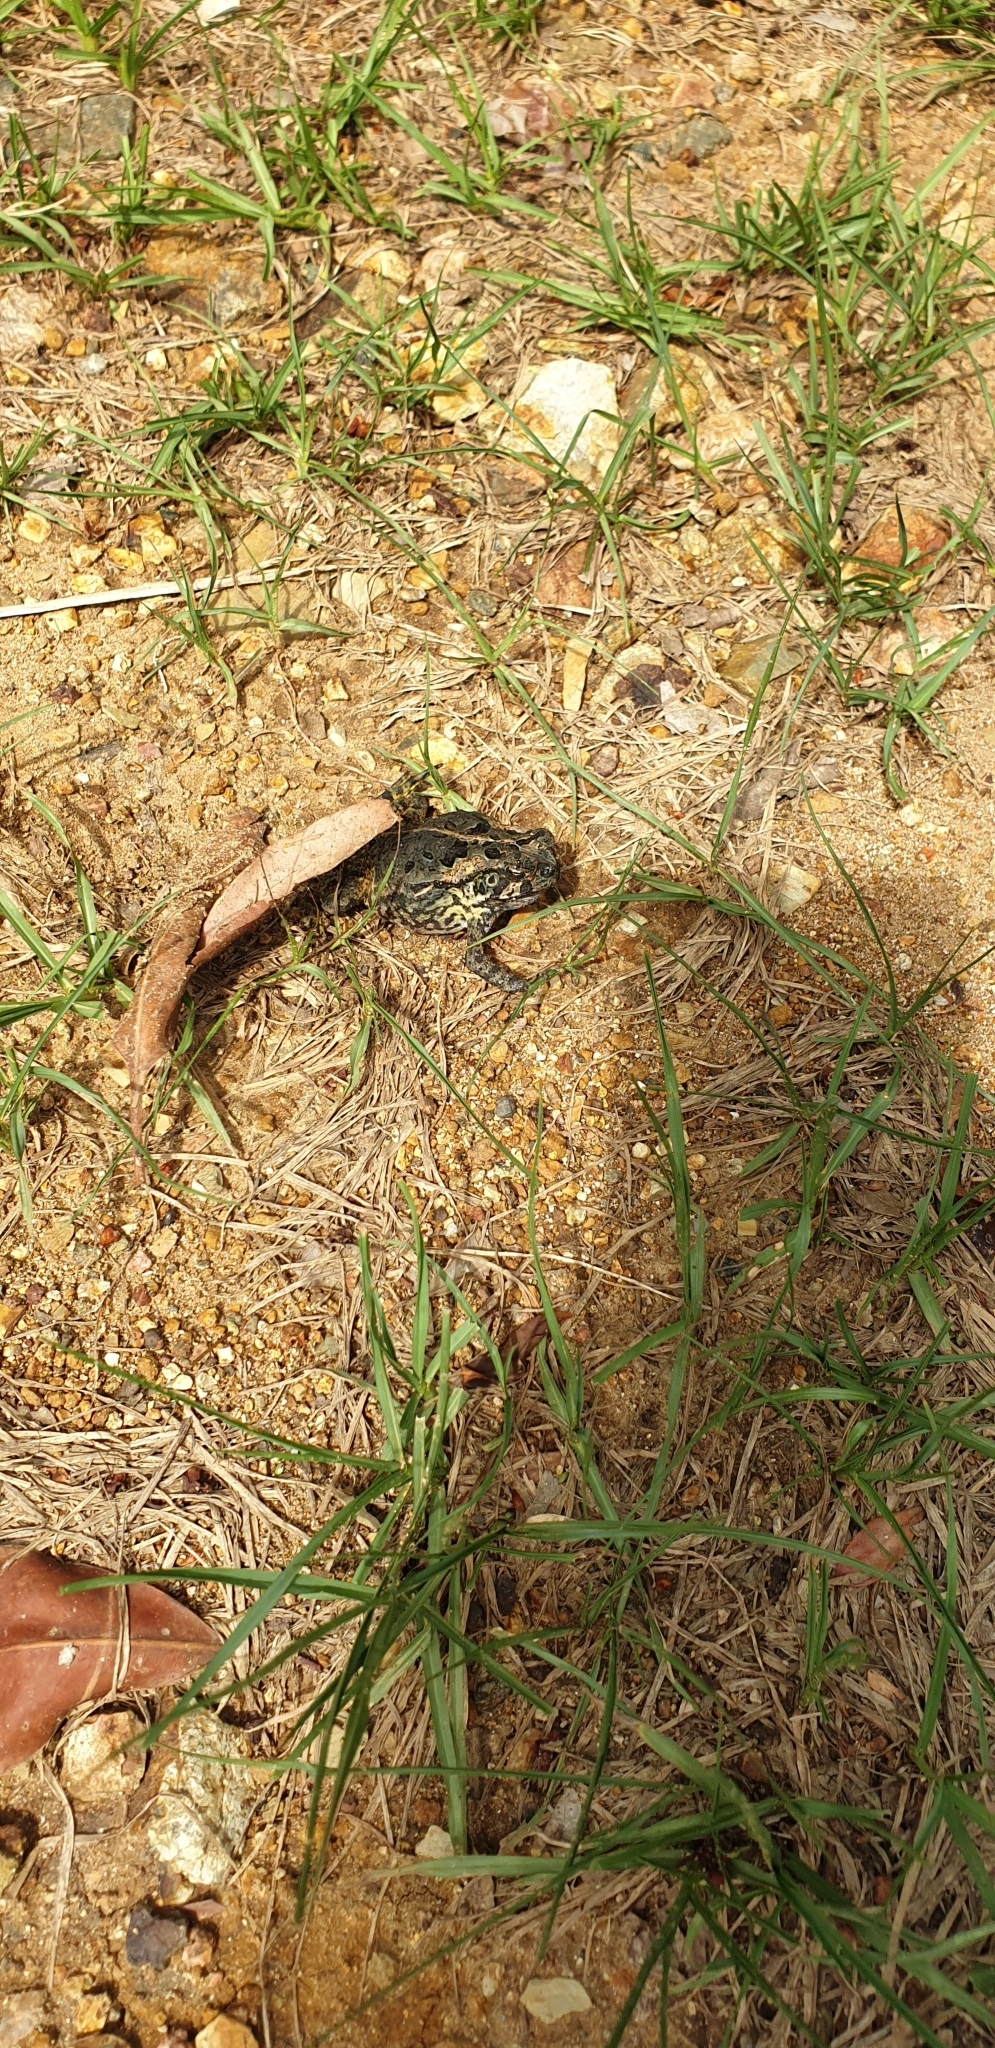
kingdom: Animalia
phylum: Chordata
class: Amphibia
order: Anura
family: Bufonidae
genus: Rhinella
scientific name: Rhinella marina
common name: Cane toad
